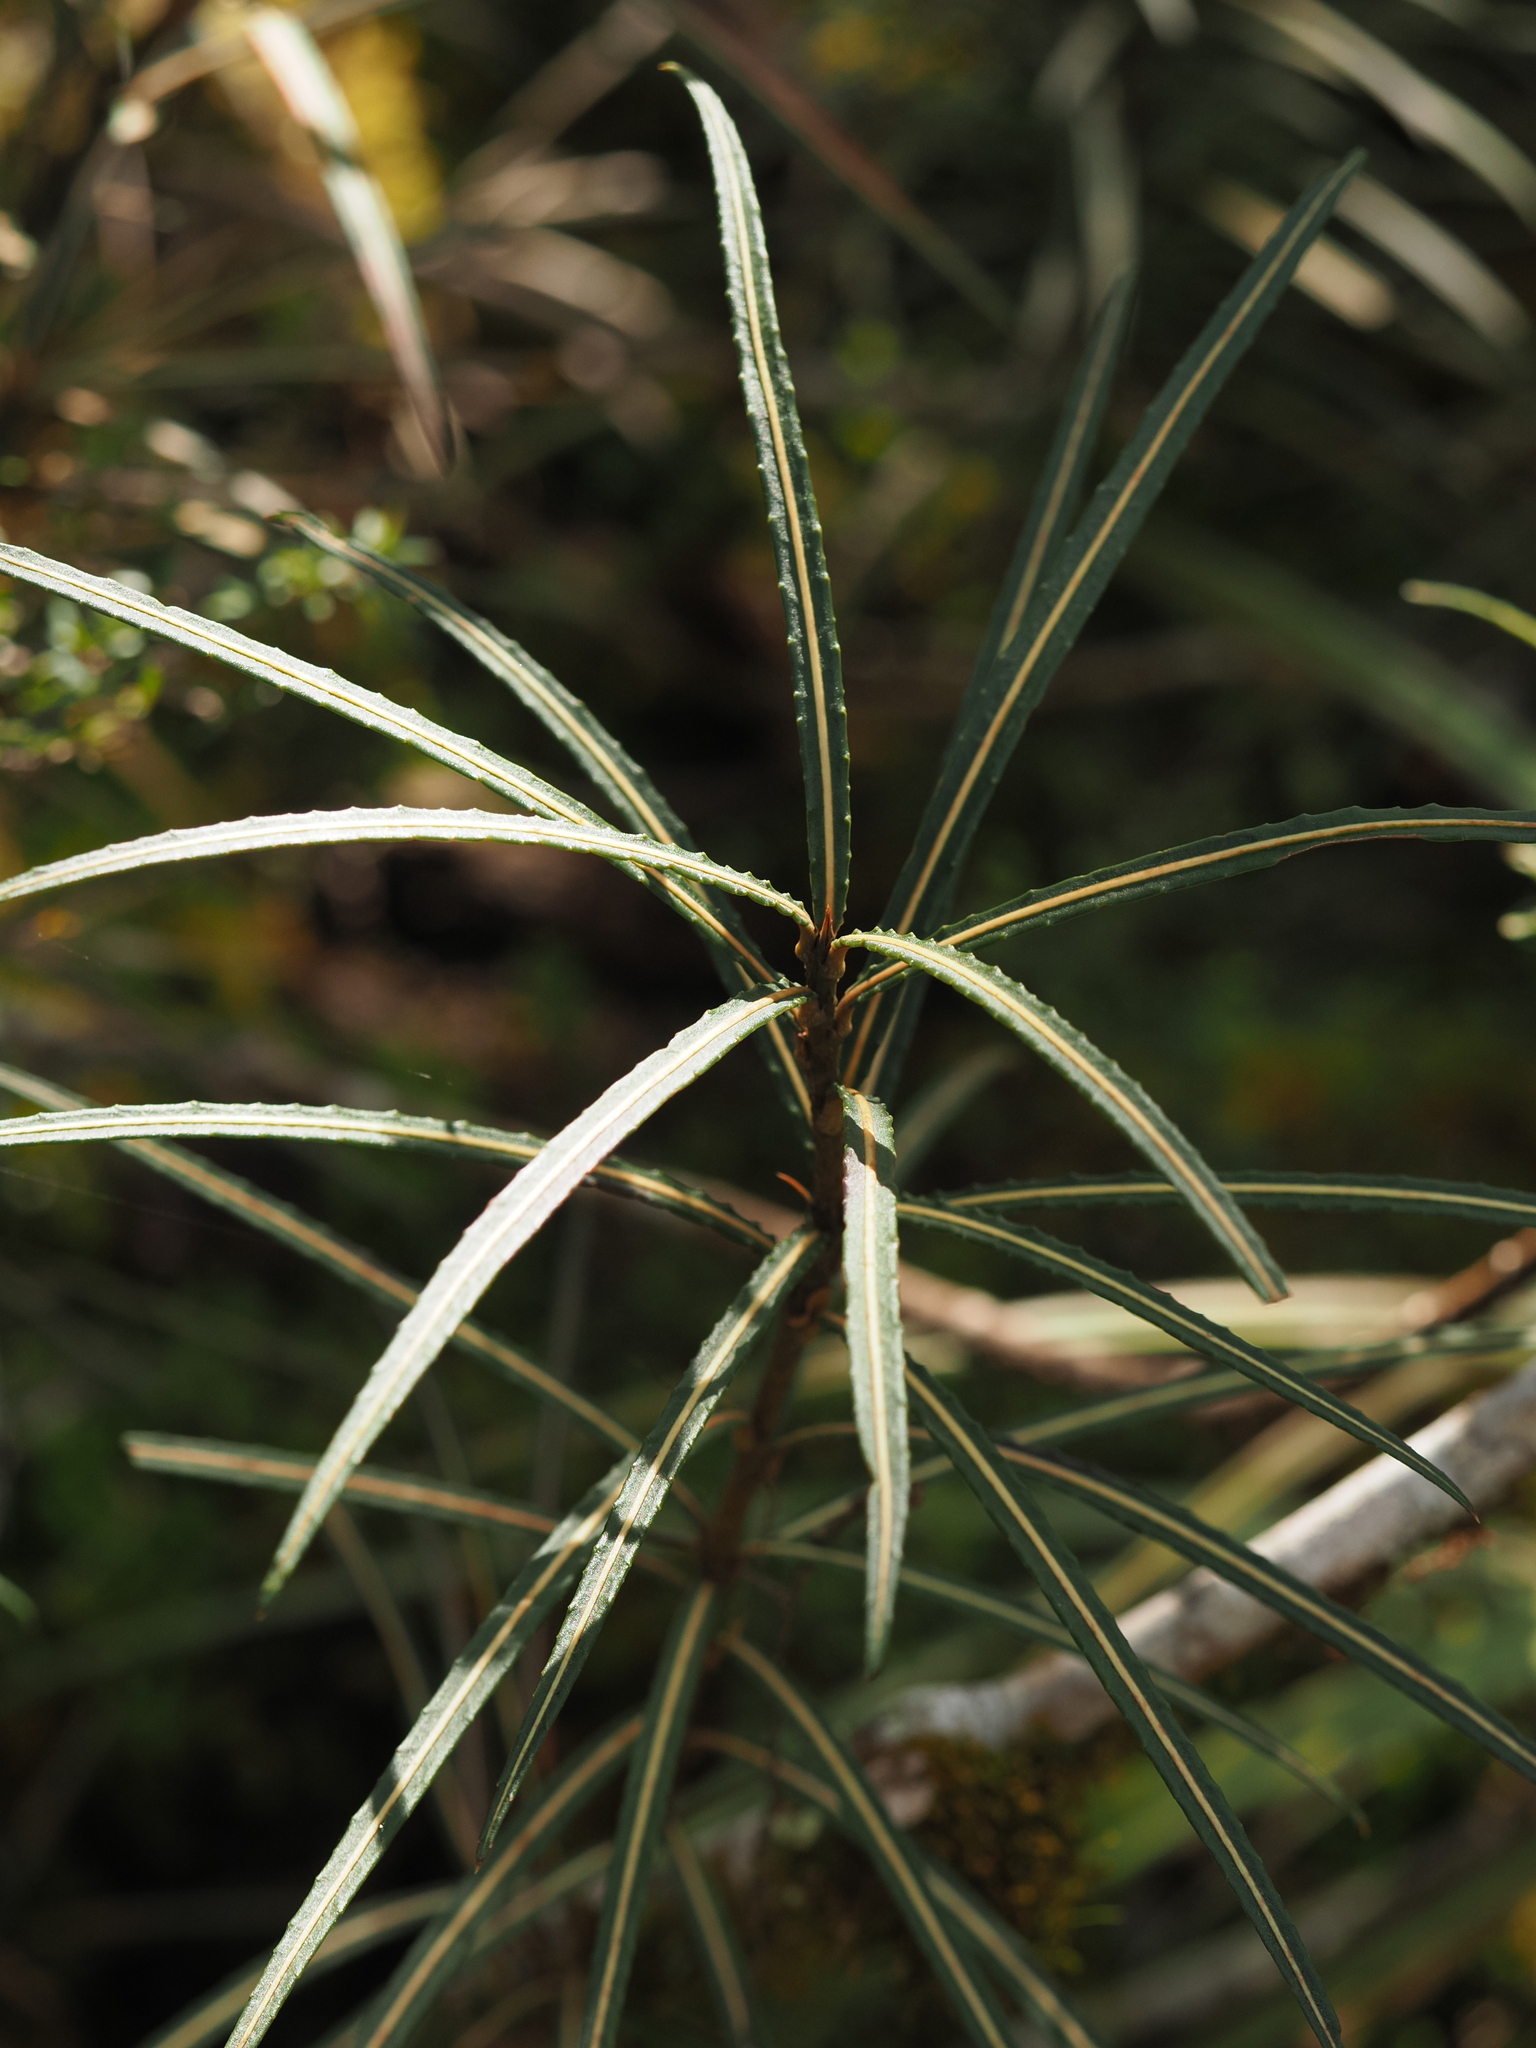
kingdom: Plantae
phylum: Tracheophyta
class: Magnoliopsida
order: Apiales
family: Araliaceae
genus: Pseudopanax
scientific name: Pseudopanax linearis
